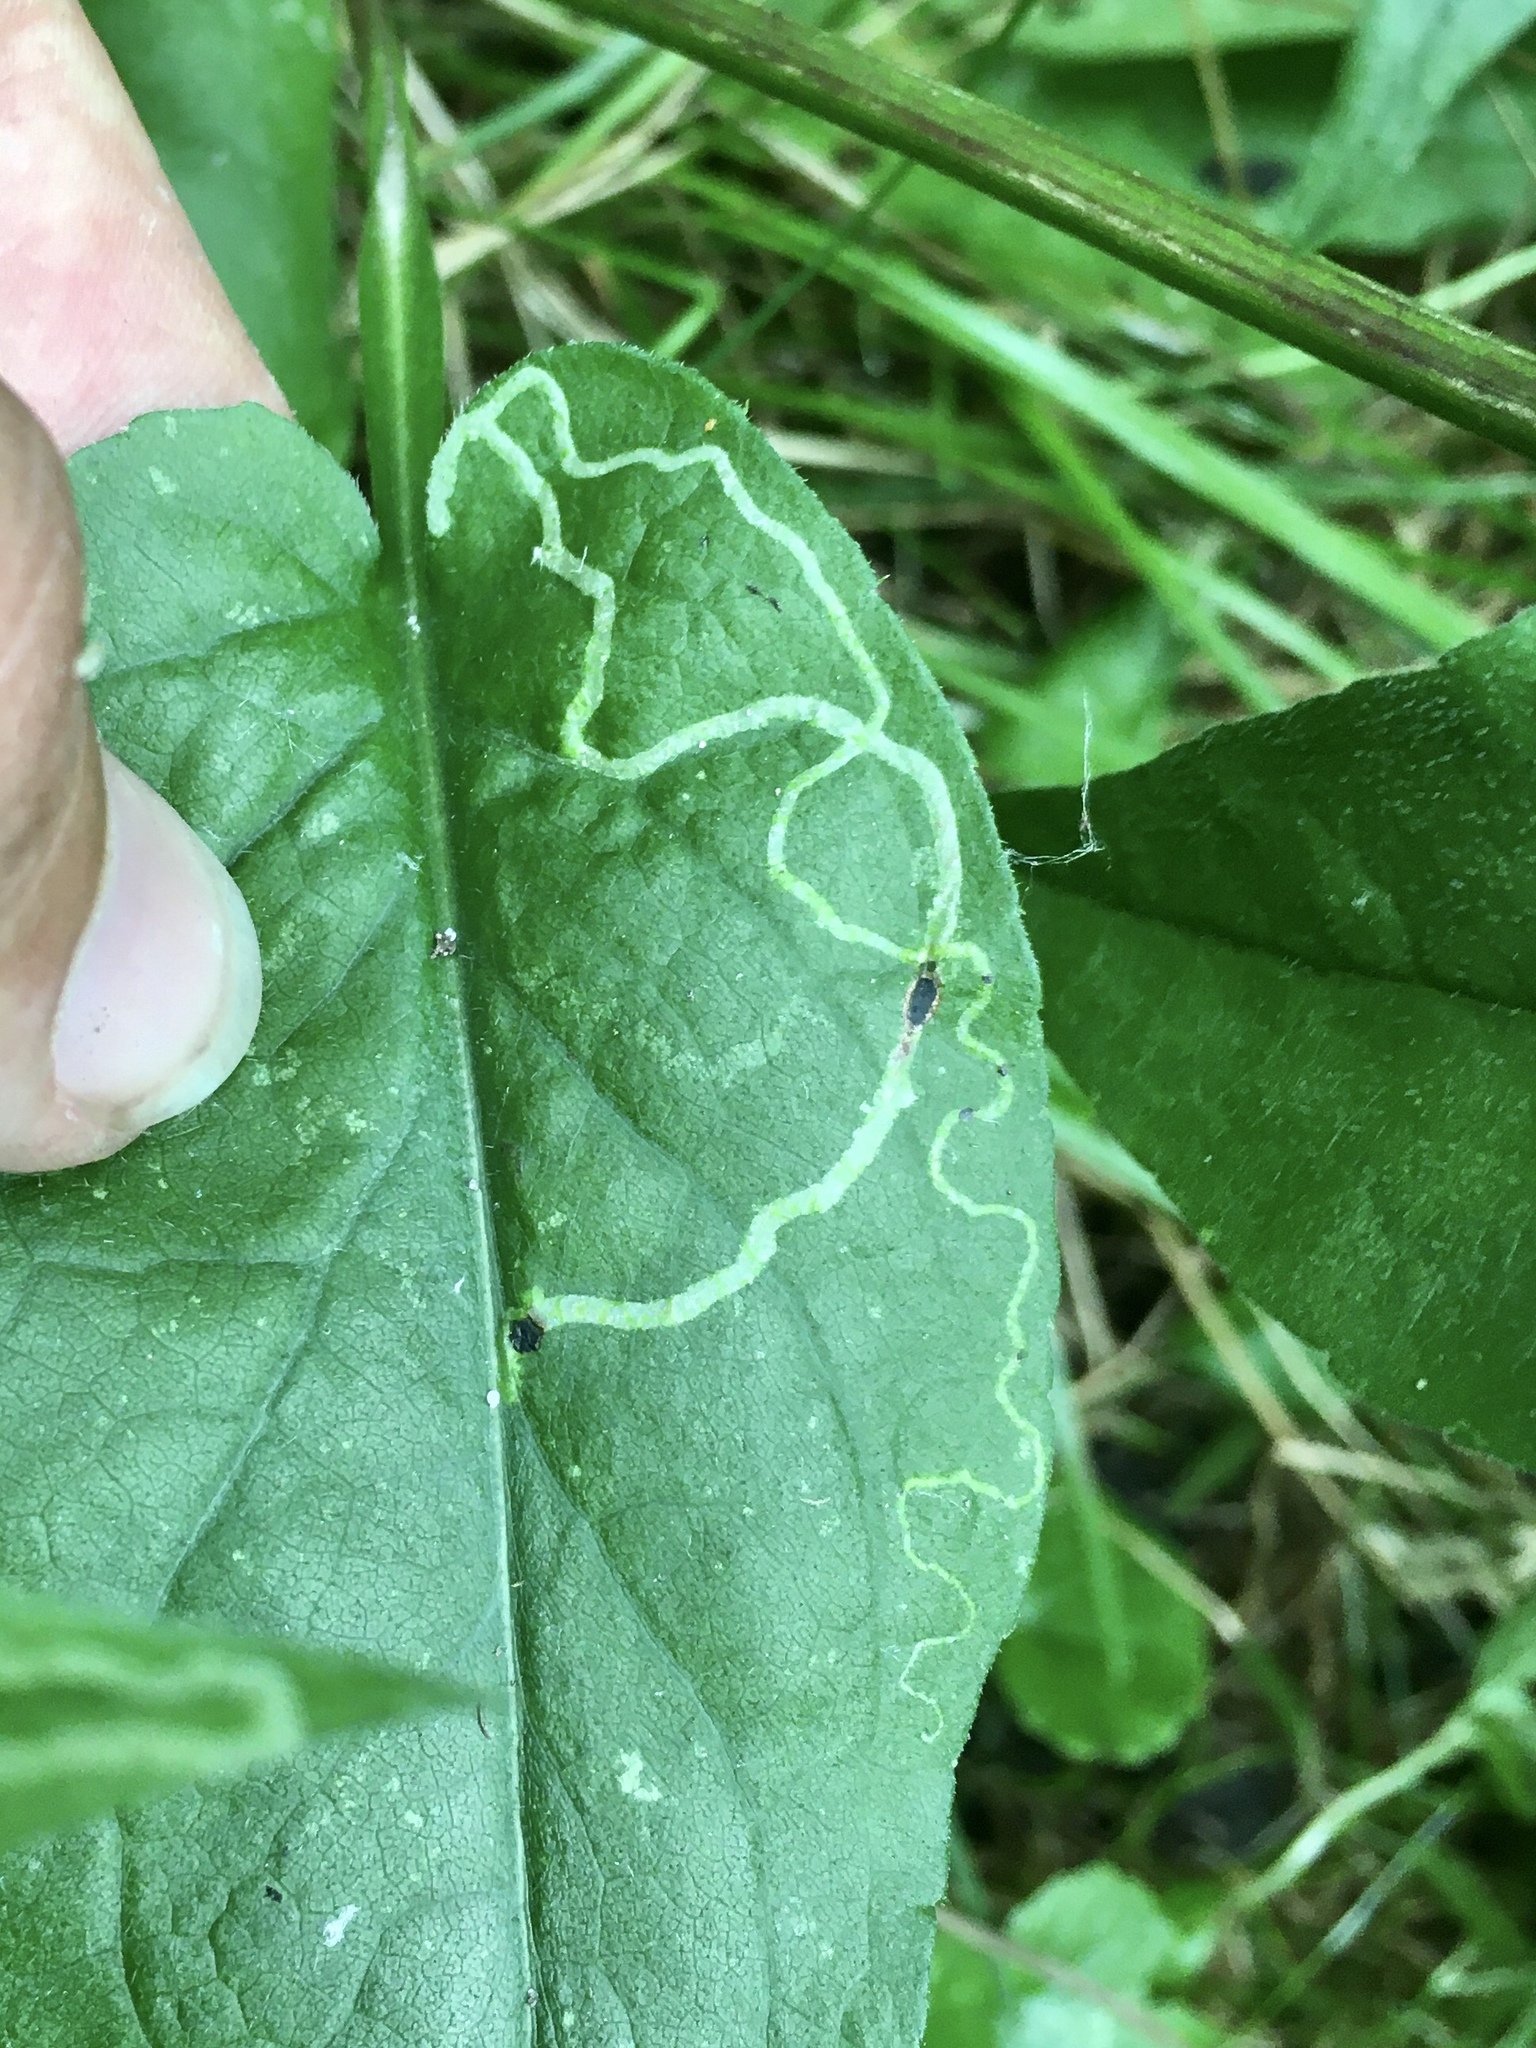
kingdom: Animalia
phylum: Arthropoda
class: Insecta
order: Diptera
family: Agromyzidae
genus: Ophiomyia
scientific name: Ophiomyia parda
